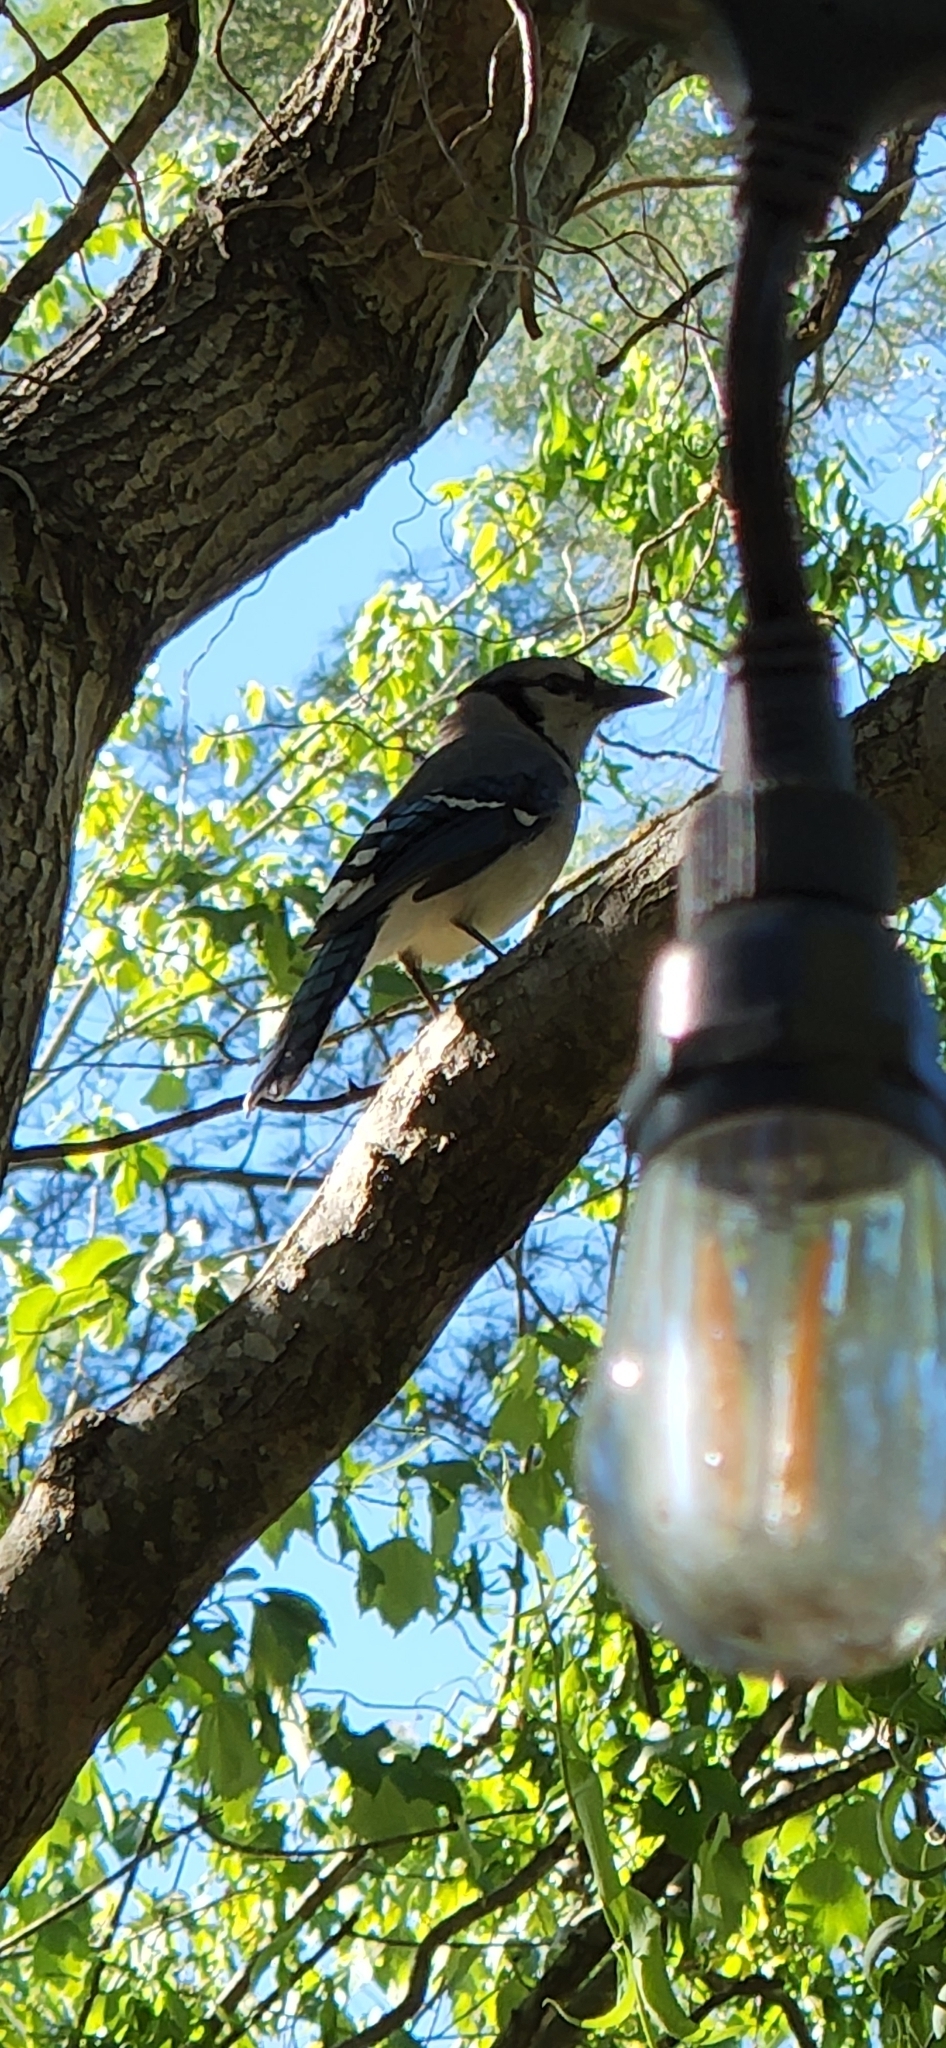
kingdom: Animalia
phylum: Chordata
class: Aves
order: Passeriformes
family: Corvidae
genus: Cyanocitta
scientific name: Cyanocitta cristata
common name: Blue jay
